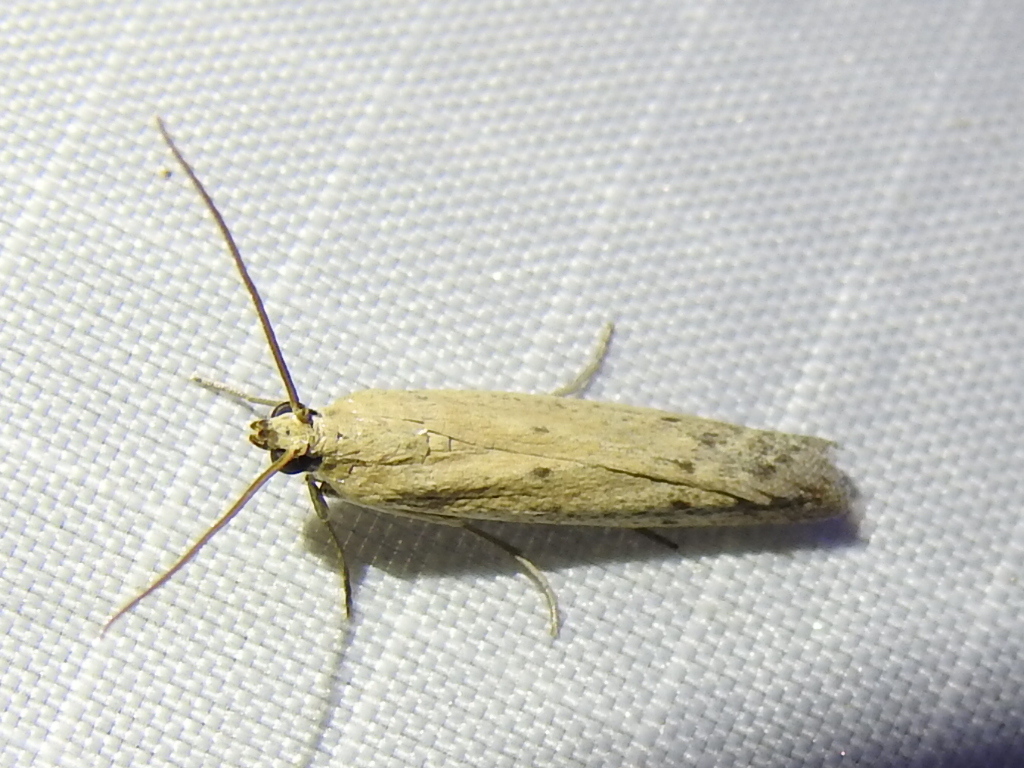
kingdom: Animalia
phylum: Arthropoda
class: Insecta
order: Lepidoptera
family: Pyralidae
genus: Homoeosoma
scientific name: Homoeosoma electella
